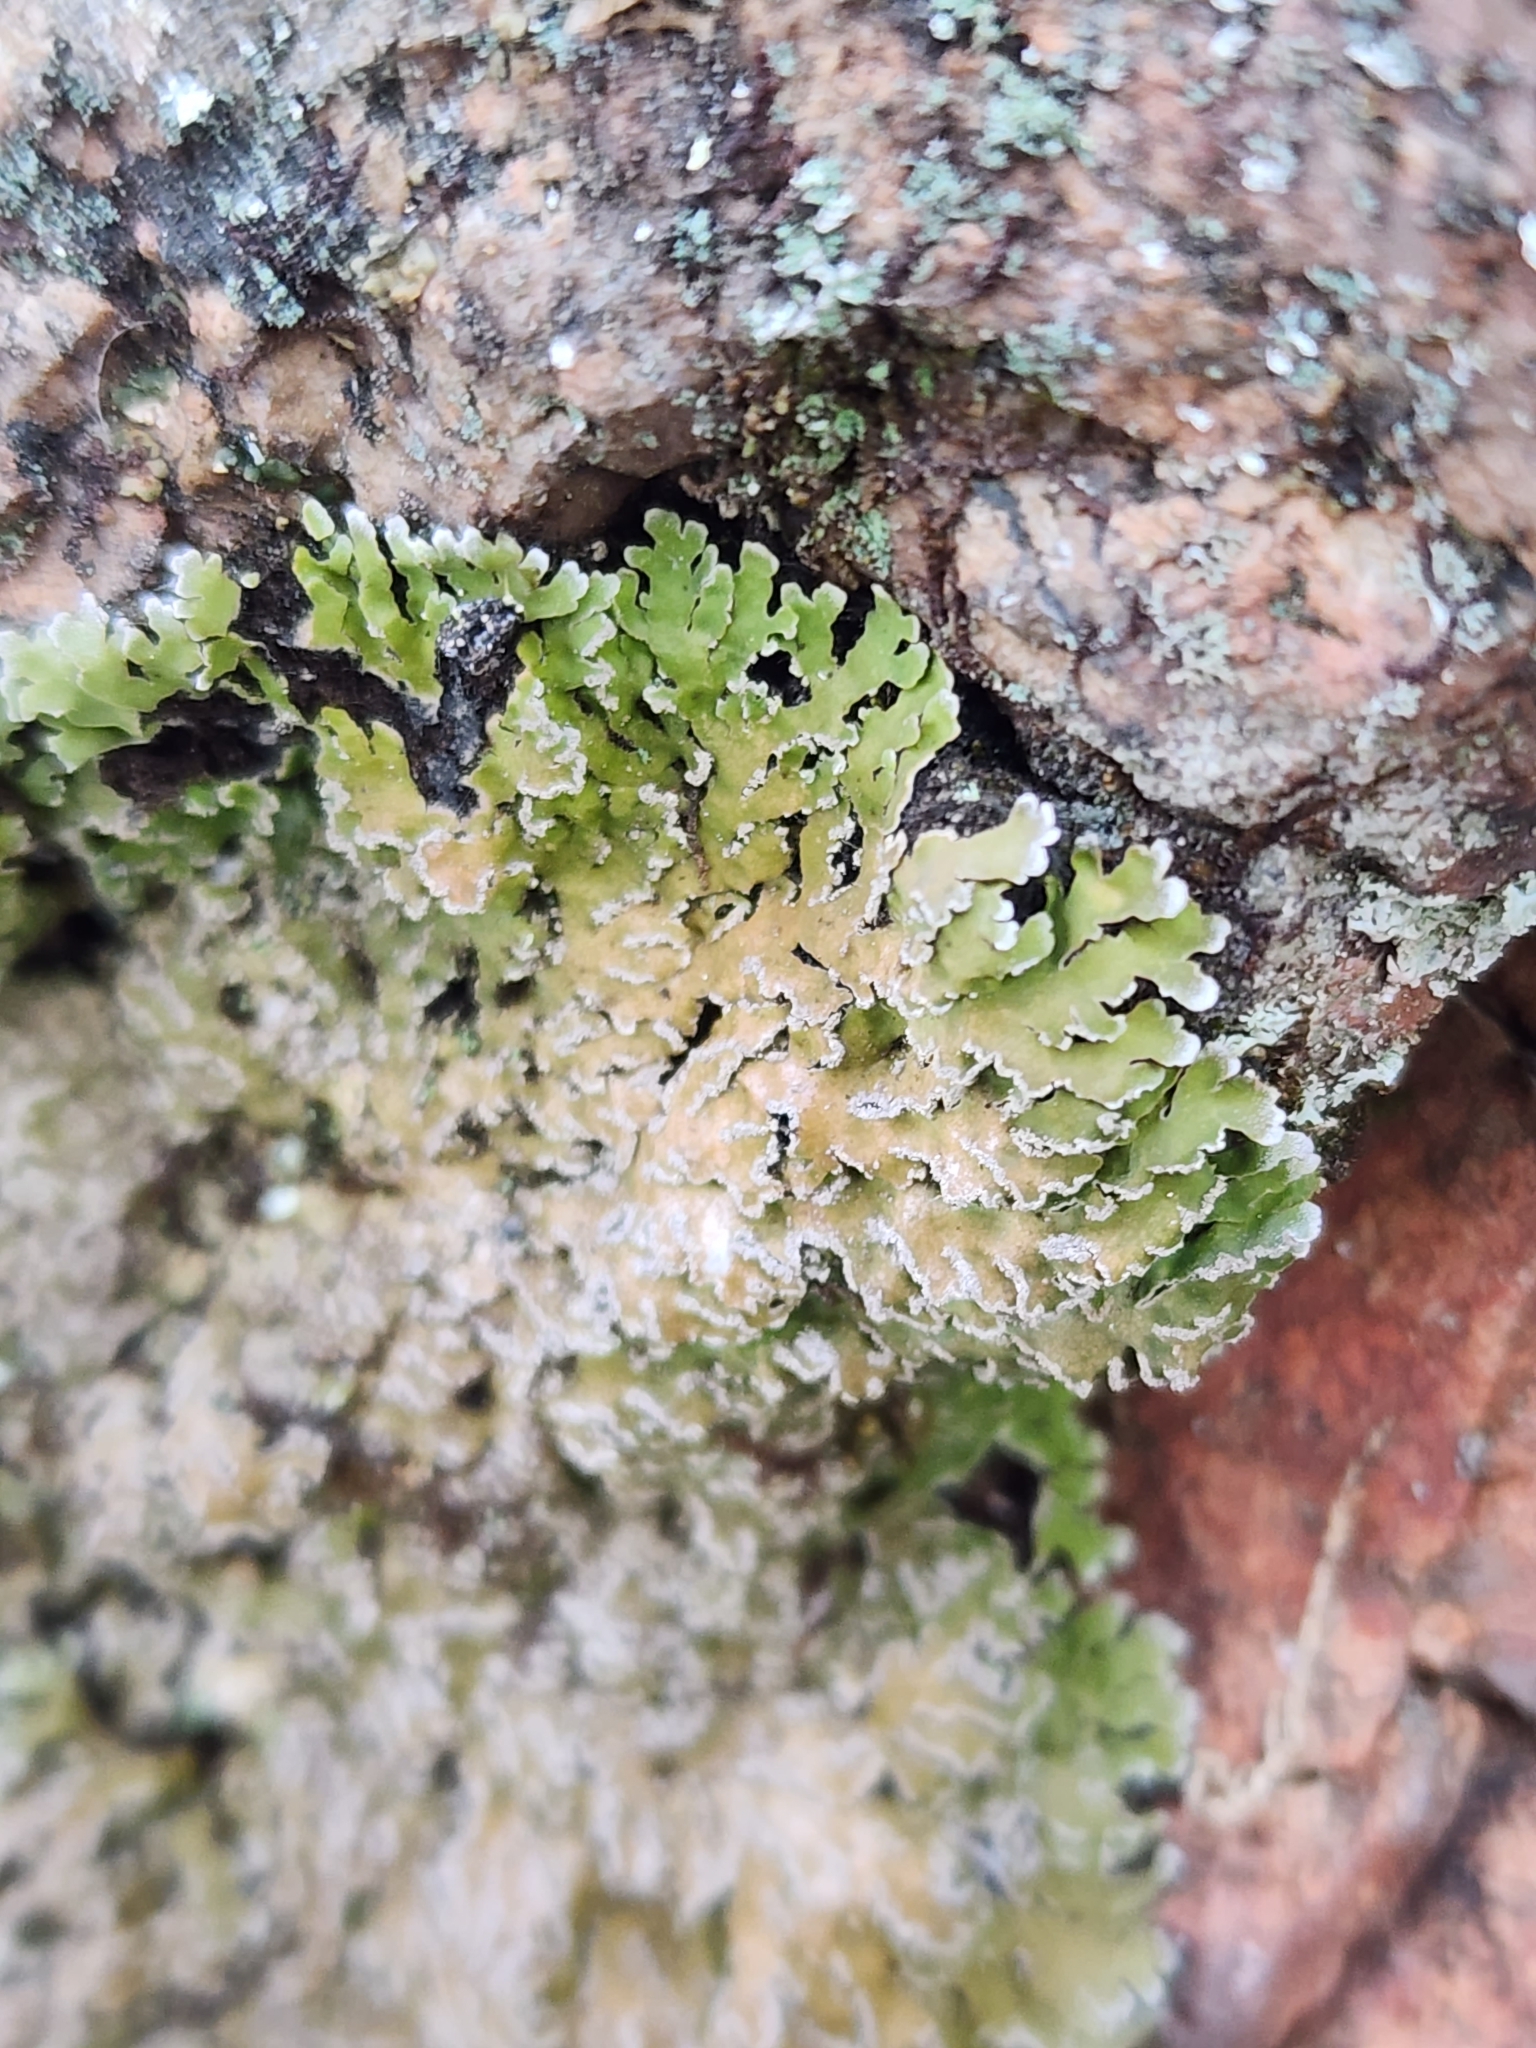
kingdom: Fungi
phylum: Ascomycota
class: Lecanoromycetes
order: Caliciales
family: Physciaceae
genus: Physconia
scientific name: Physconia detersa
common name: Bottlebrush frost lichen
